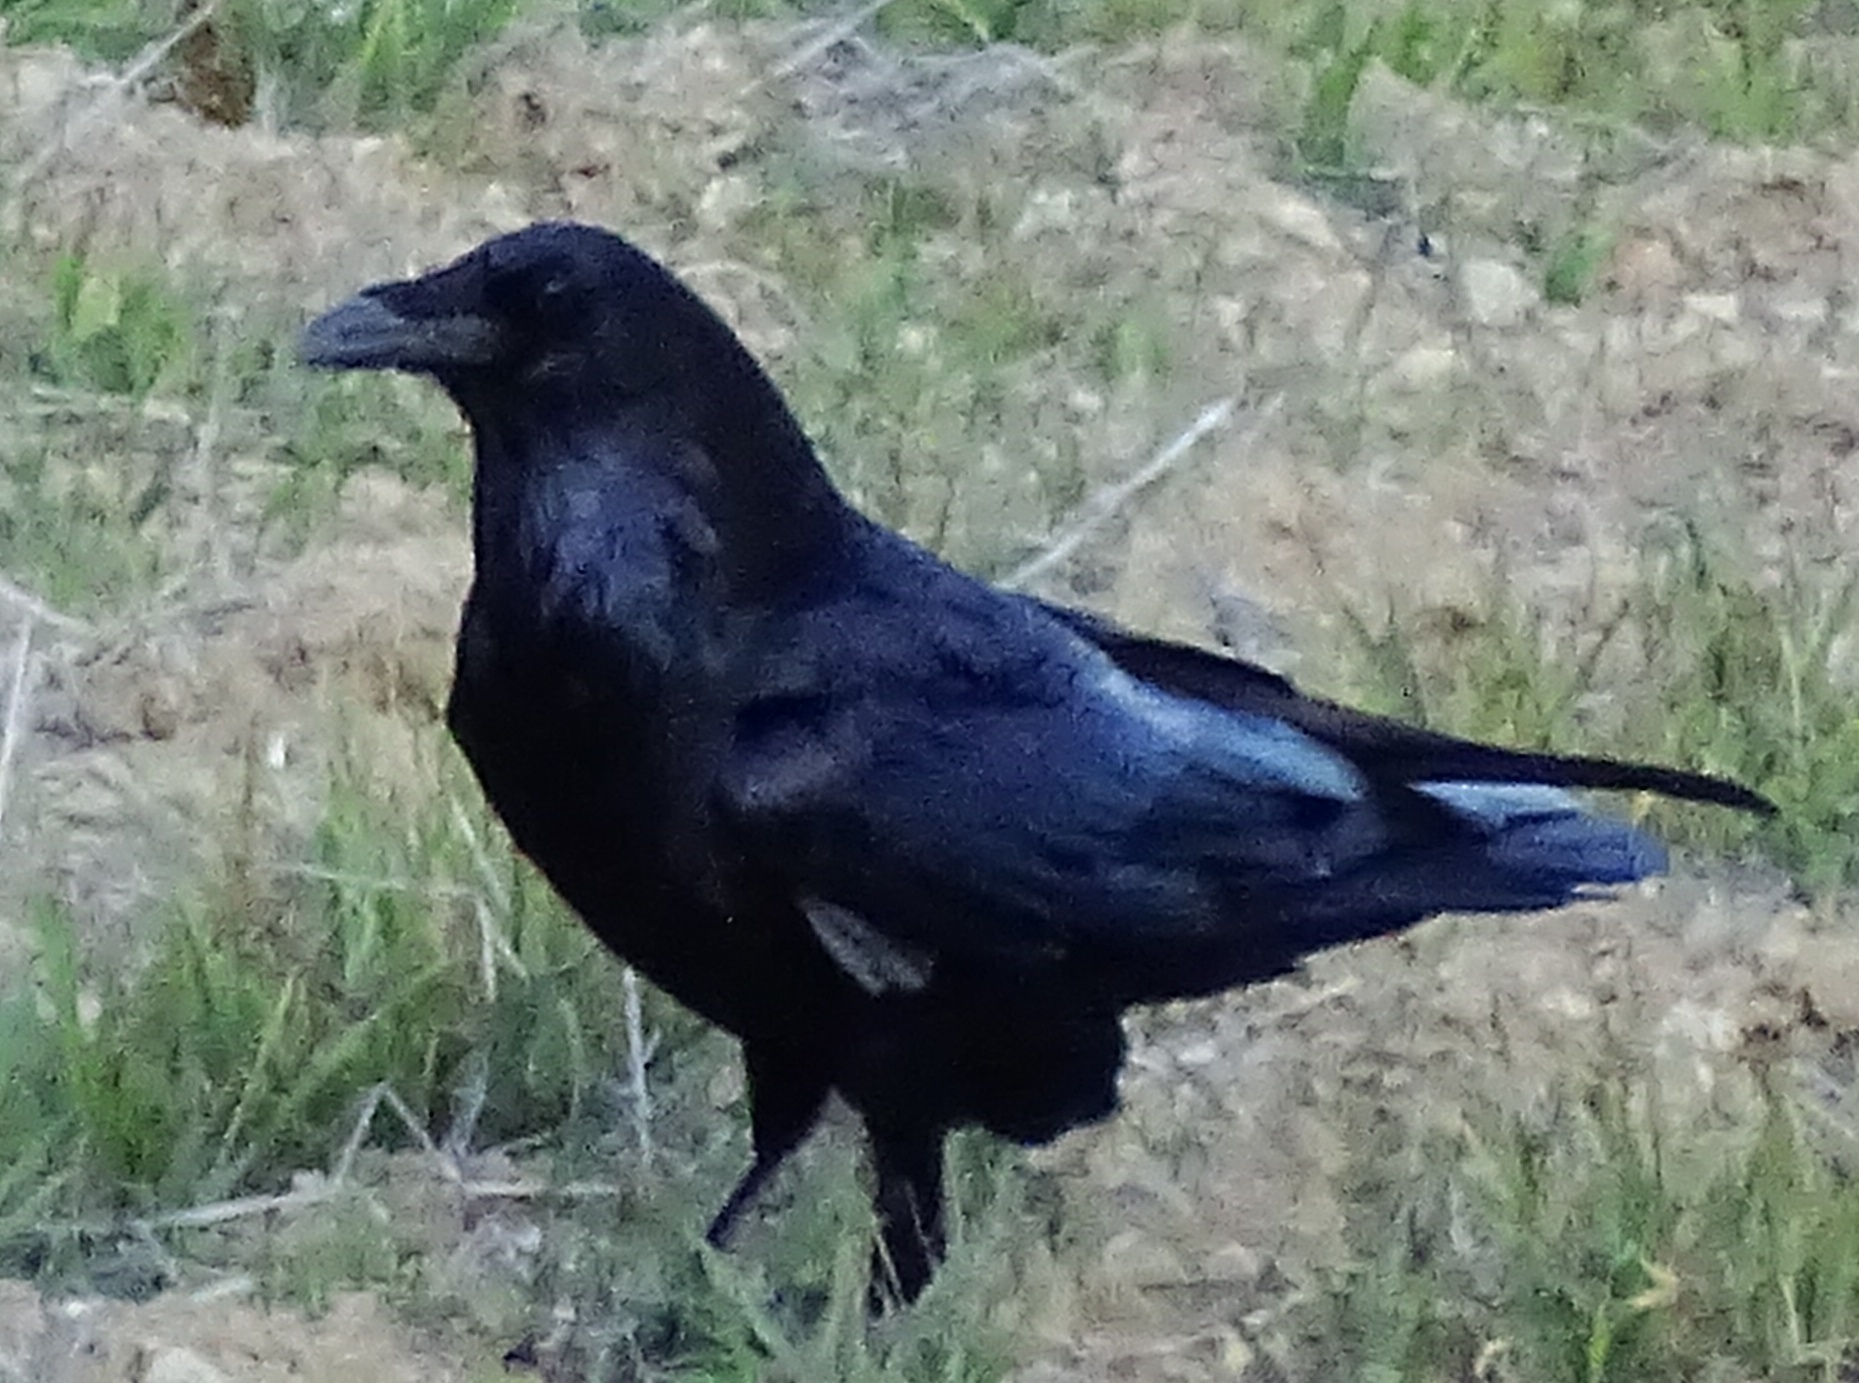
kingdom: Animalia
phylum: Chordata
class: Aves
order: Passeriformes
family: Corvidae
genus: Corvus
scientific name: Corvus corax
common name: Common raven
